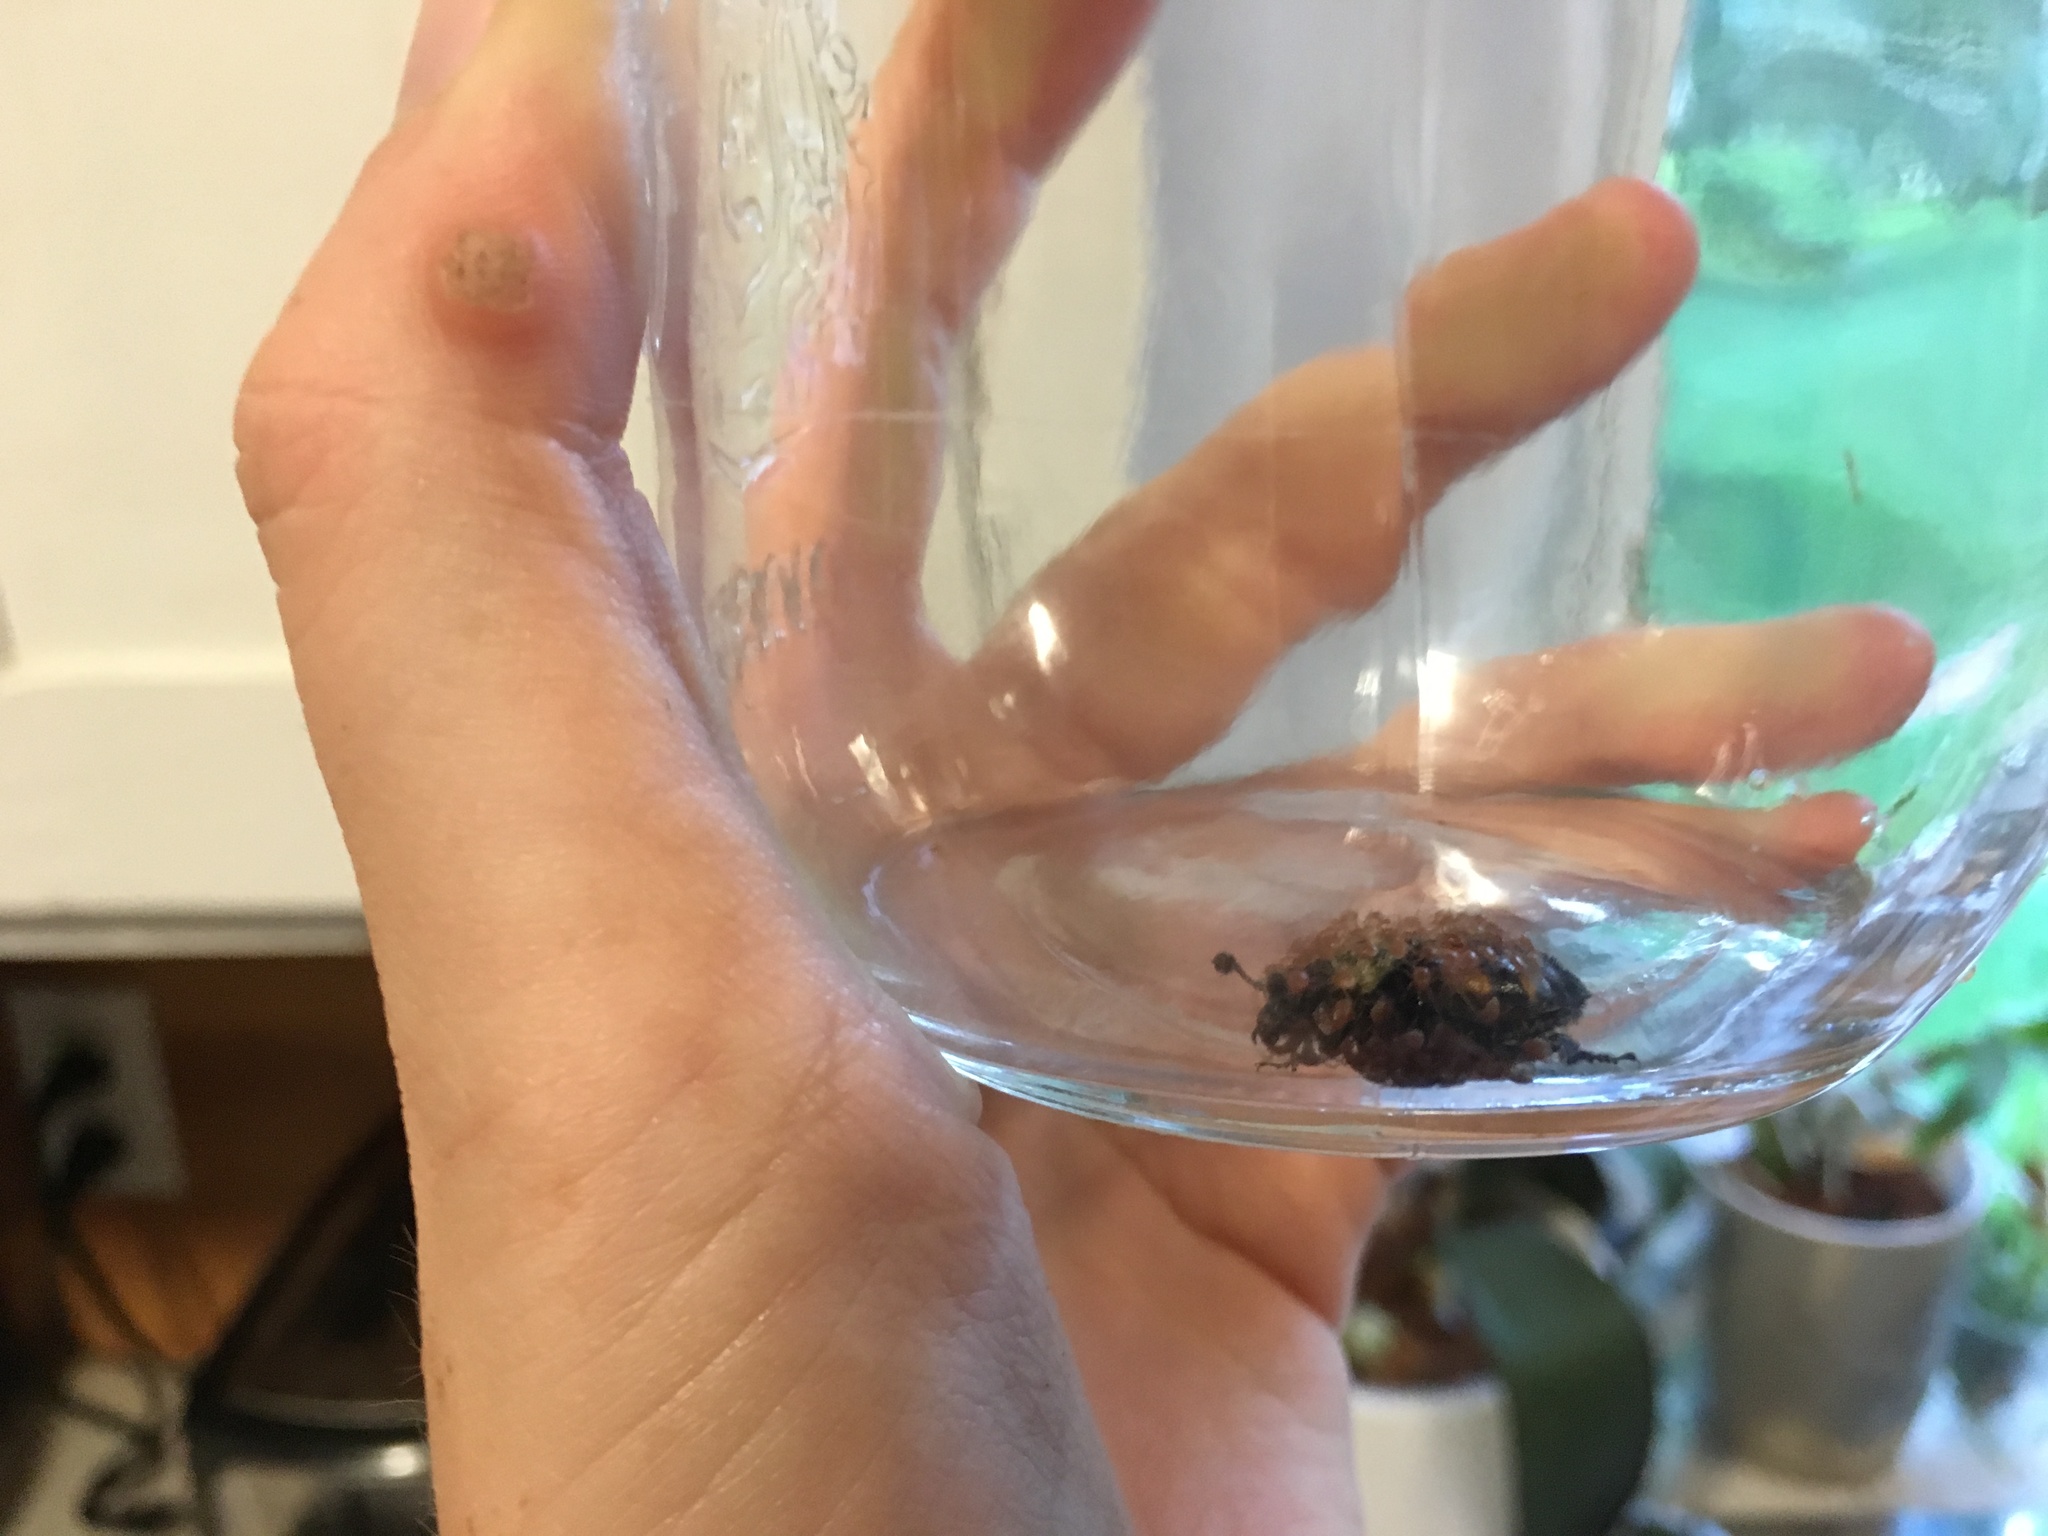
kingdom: Animalia
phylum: Arthropoda
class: Insecta
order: Coleoptera
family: Staphylinidae
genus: Nicrophorus
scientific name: Nicrophorus tomentosus
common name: Tomentose burying beetle
